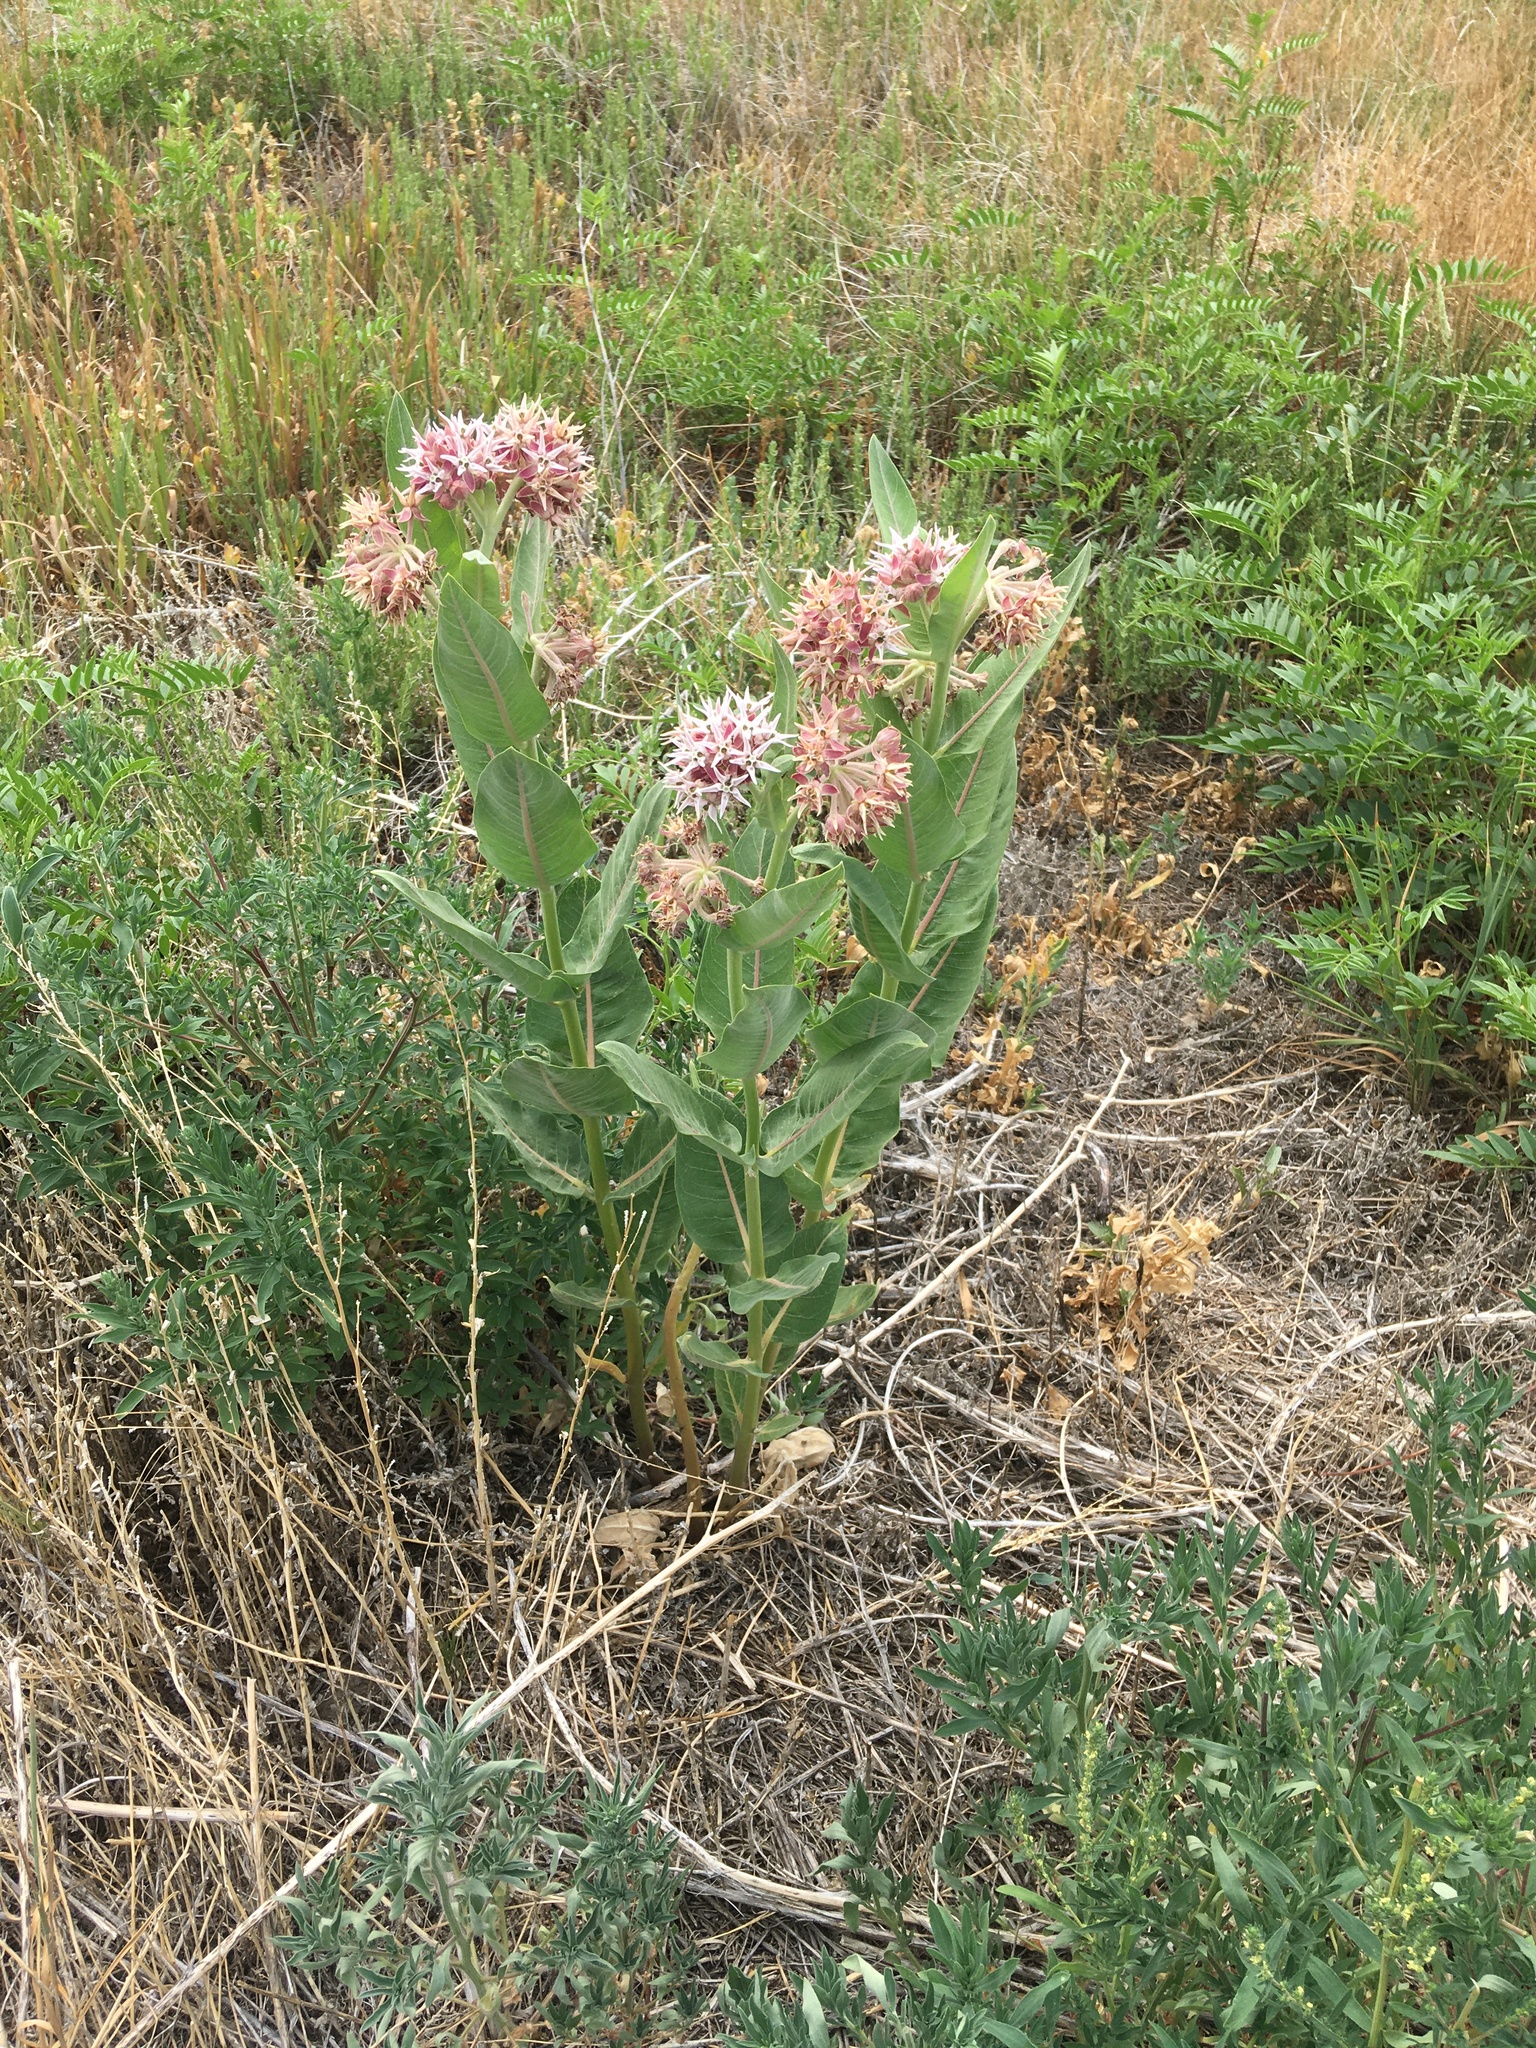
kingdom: Plantae
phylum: Tracheophyta
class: Magnoliopsida
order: Gentianales
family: Apocynaceae
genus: Asclepias
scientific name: Asclepias speciosa
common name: Showy milkweed
